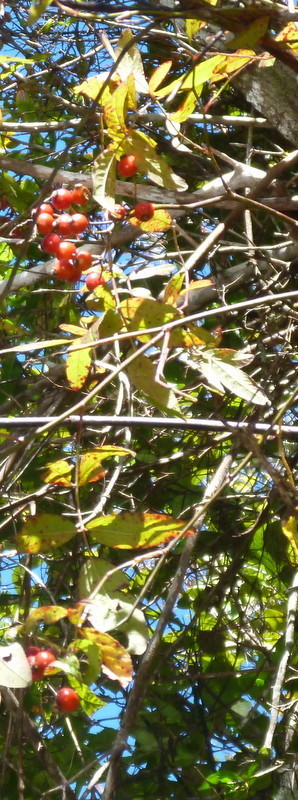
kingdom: Plantae
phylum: Tracheophyta
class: Magnoliopsida
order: Rosales
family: Rosaceae
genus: Rosa
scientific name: Rosa palustris
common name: Swamp rose
